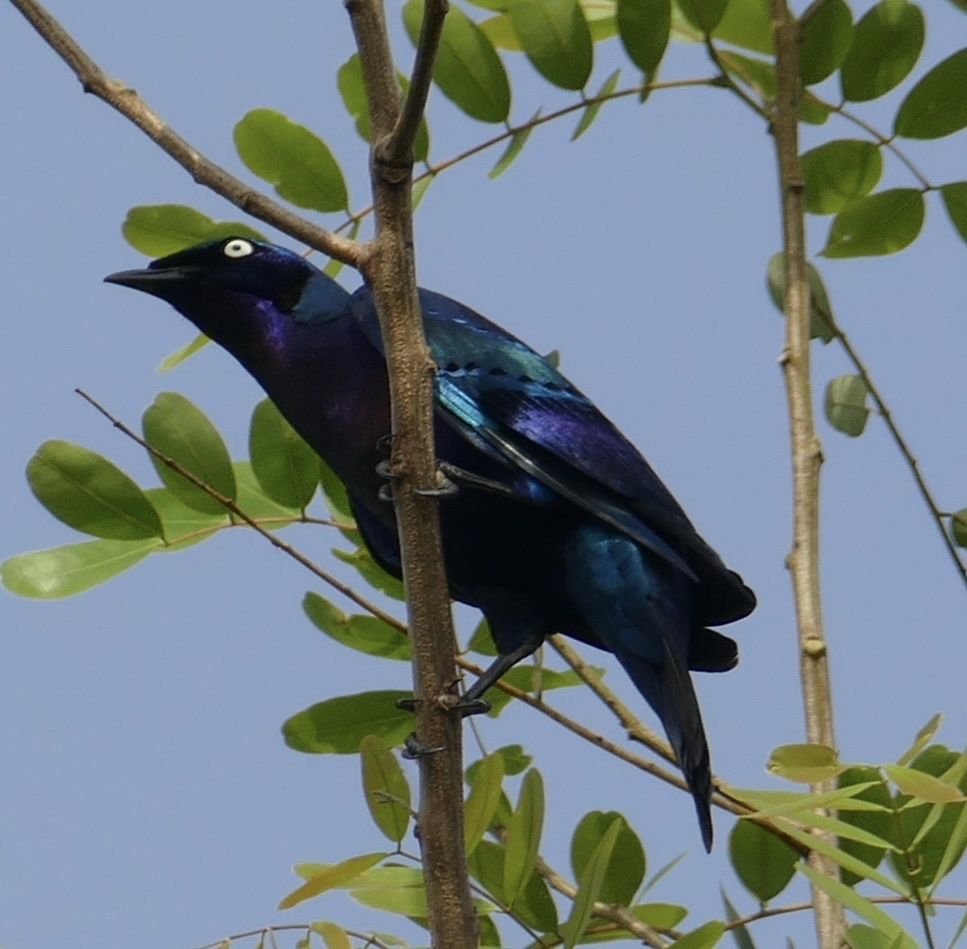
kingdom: Animalia
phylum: Chordata
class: Aves
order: Passeriformes
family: Sturnidae
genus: Lamprotornis
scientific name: Lamprotornis splendidus
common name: Splendid starling
